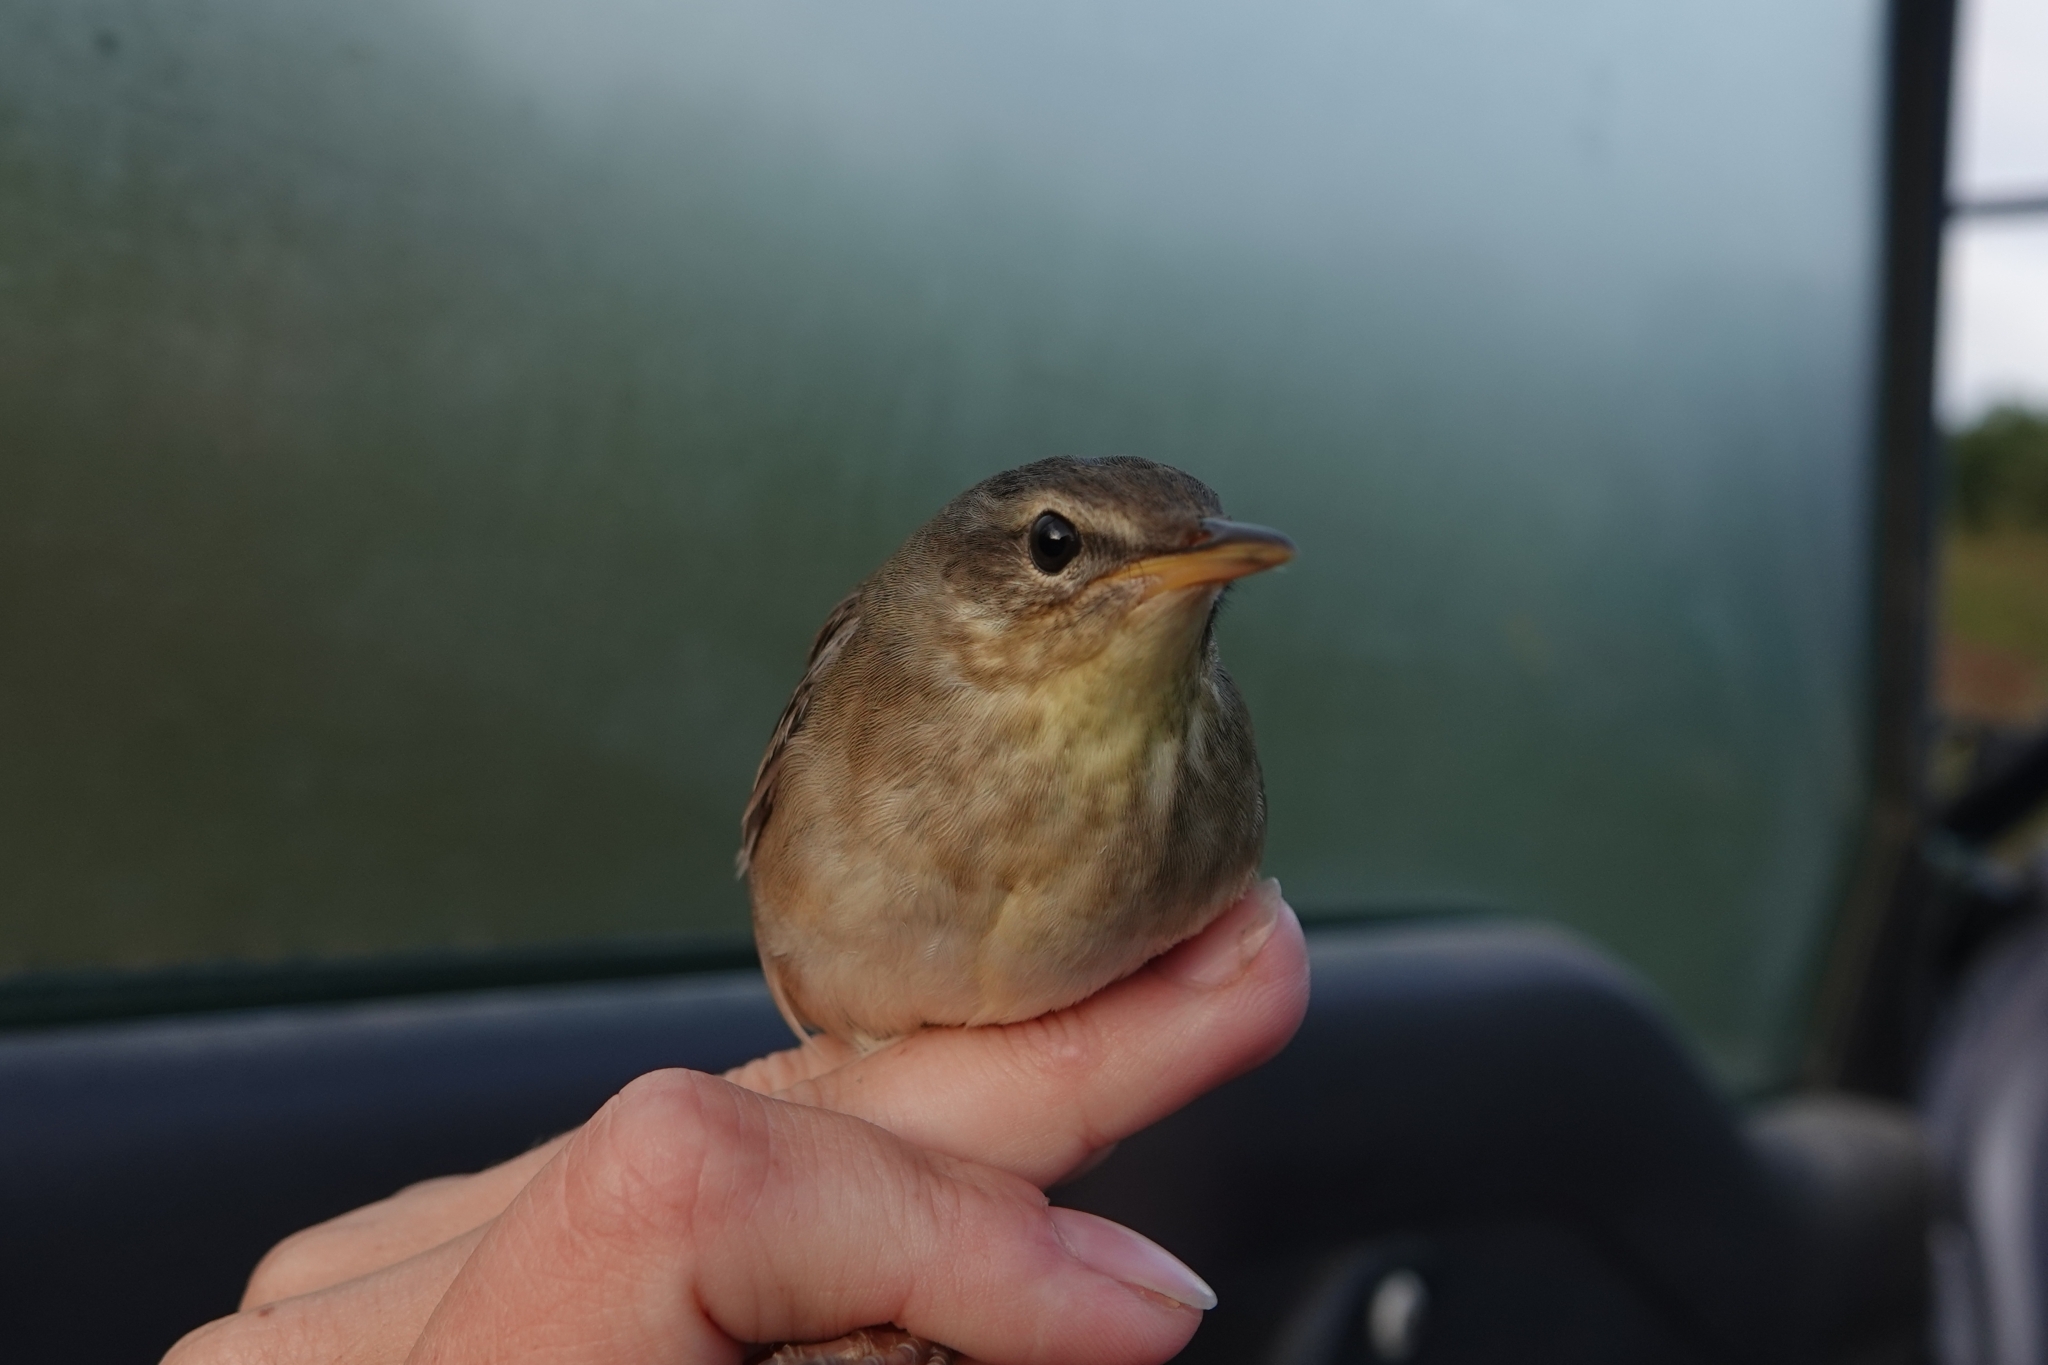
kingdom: Animalia
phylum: Chordata
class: Aves
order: Passeriformes
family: Locustellidae
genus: Locustella
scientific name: Locustella ochotensis
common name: Middendorff's grasshopper-warbler
